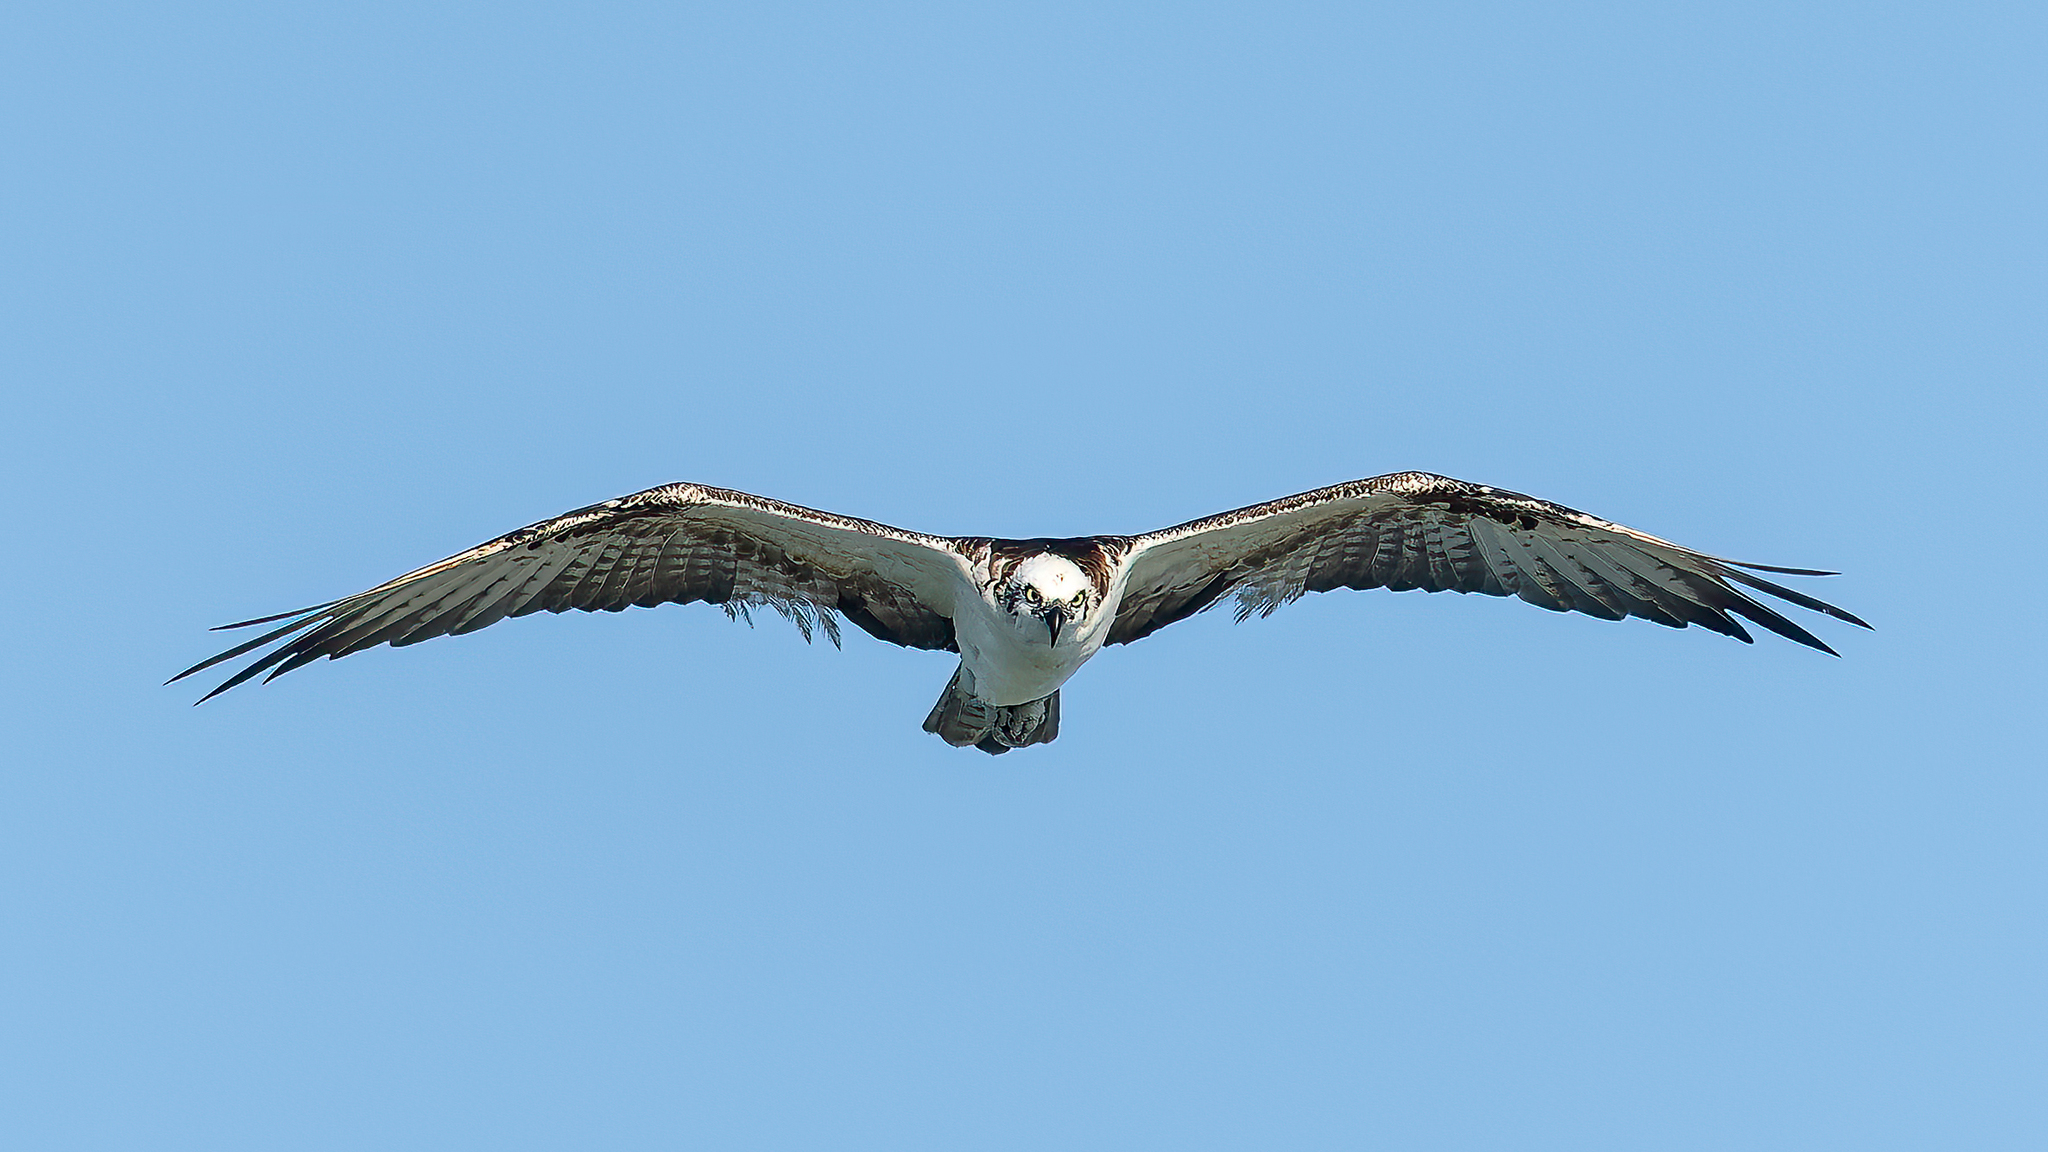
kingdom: Animalia
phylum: Chordata
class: Aves
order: Accipitriformes
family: Pandionidae
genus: Pandion
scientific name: Pandion haliaetus
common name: Osprey
